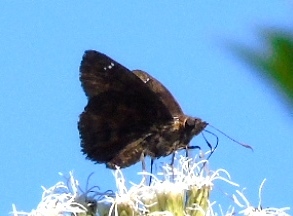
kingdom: Animalia
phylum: Arthropoda
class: Insecta
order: Lepidoptera
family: Hesperiidae
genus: Nisoniades
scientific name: Nisoniades
